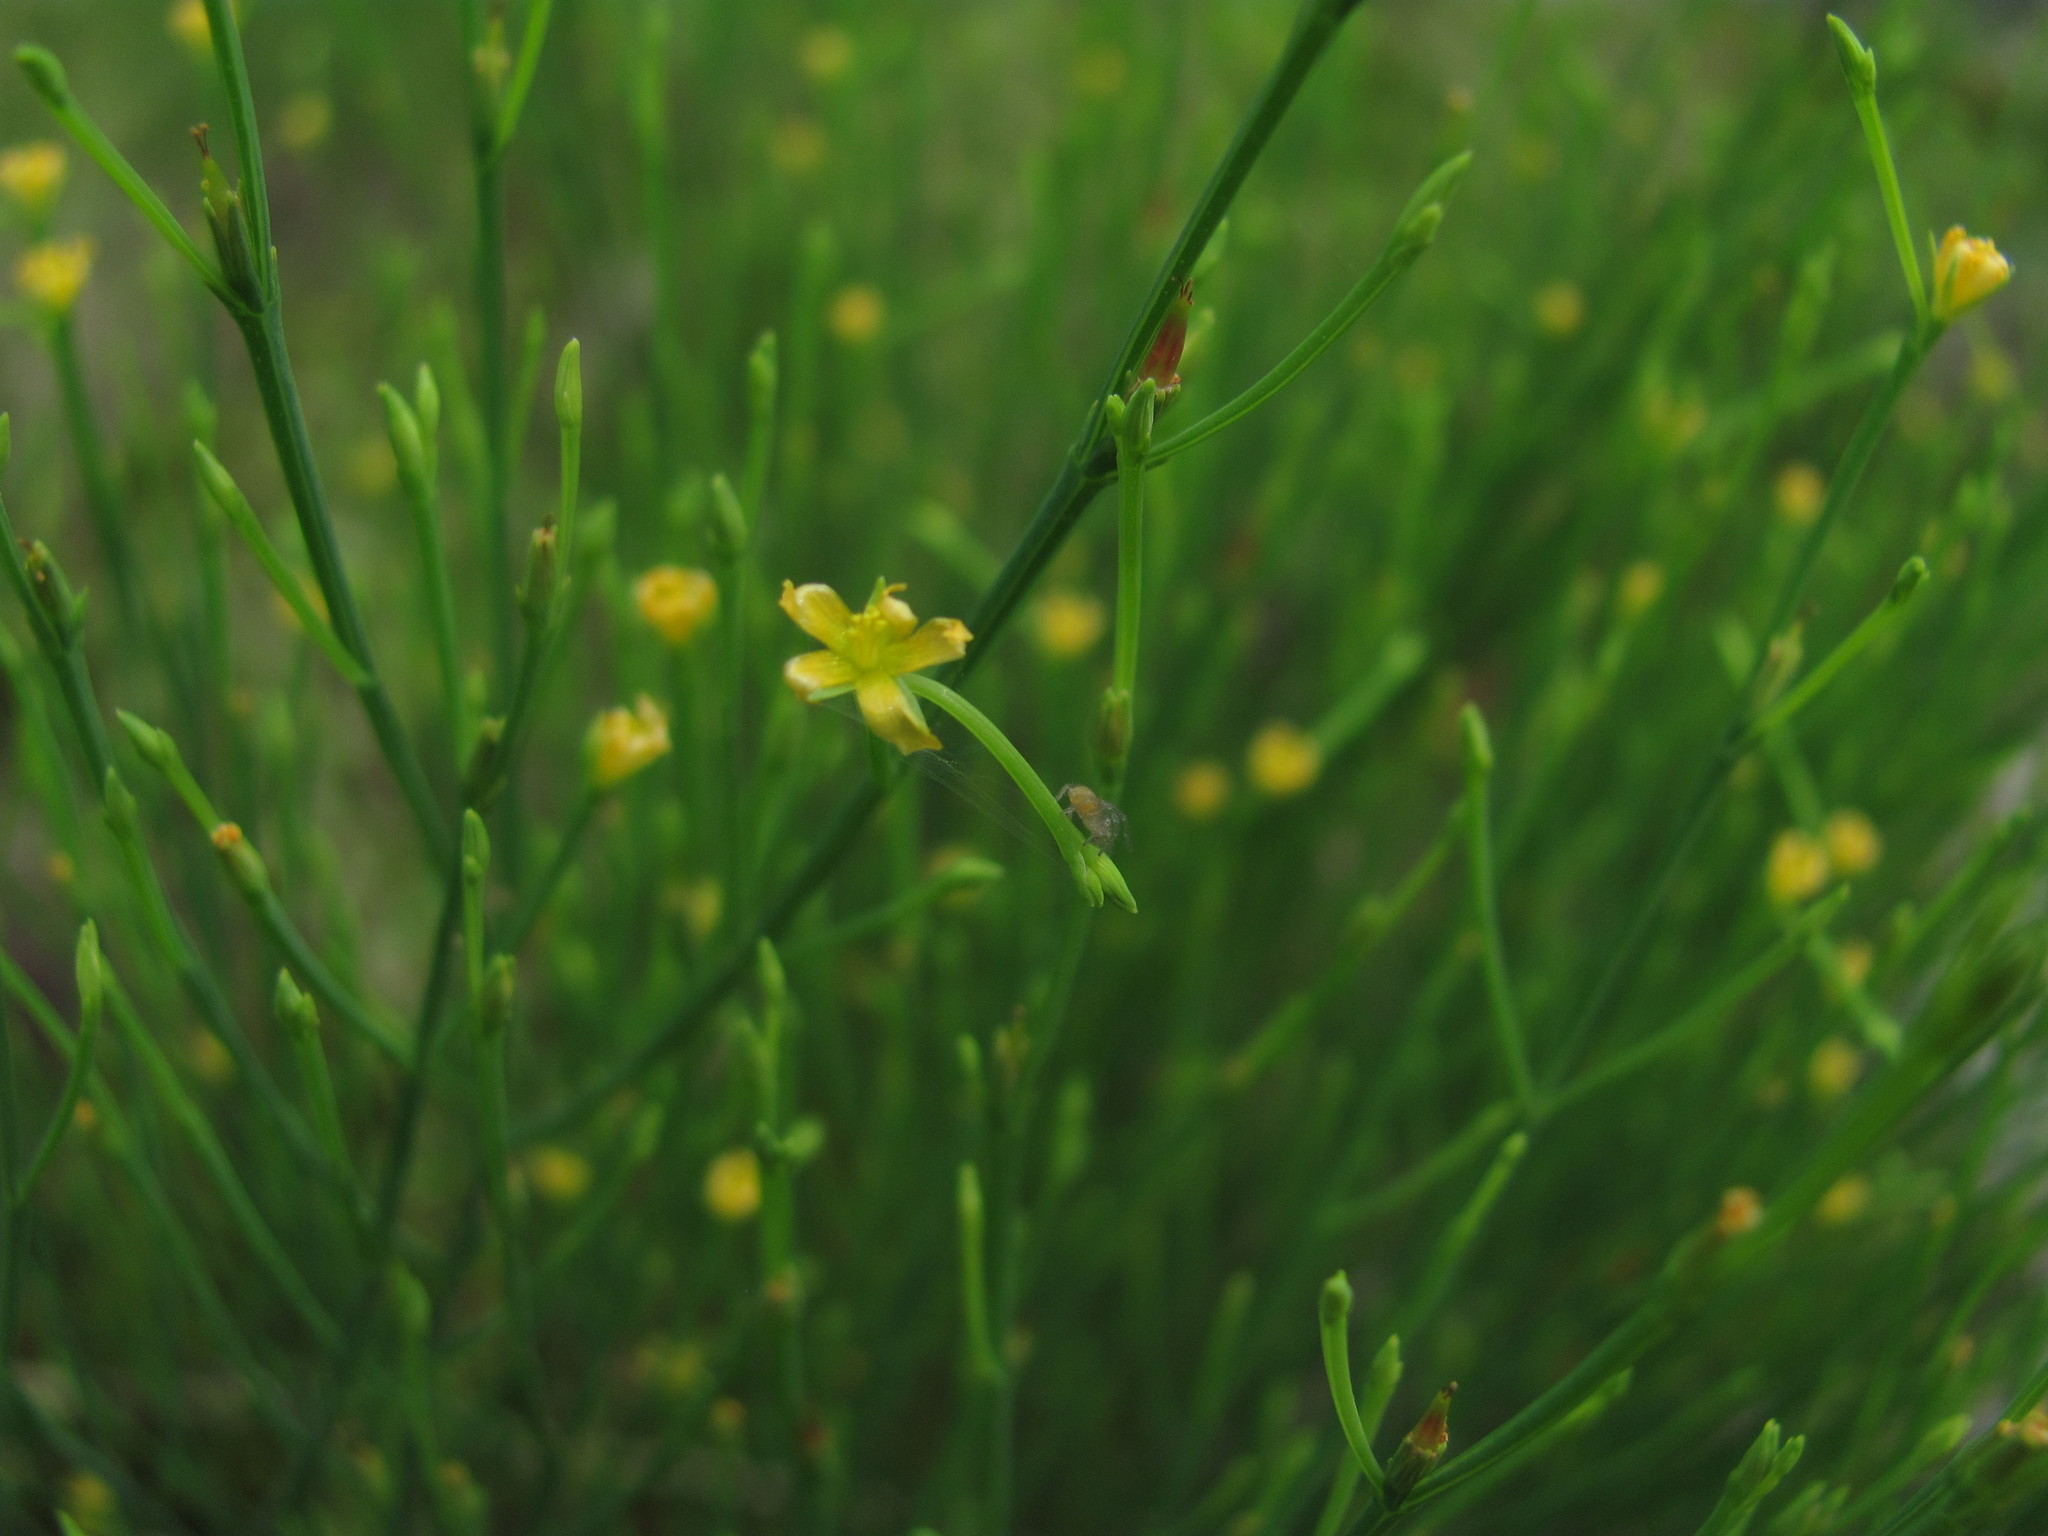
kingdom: Plantae
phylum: Tracheophyta
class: Magnoliopsida
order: Malpighiales
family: Hypericaceae
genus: Hypericum
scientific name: Hypericum gentianoides
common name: Gentian-leaved st. john's-wort
